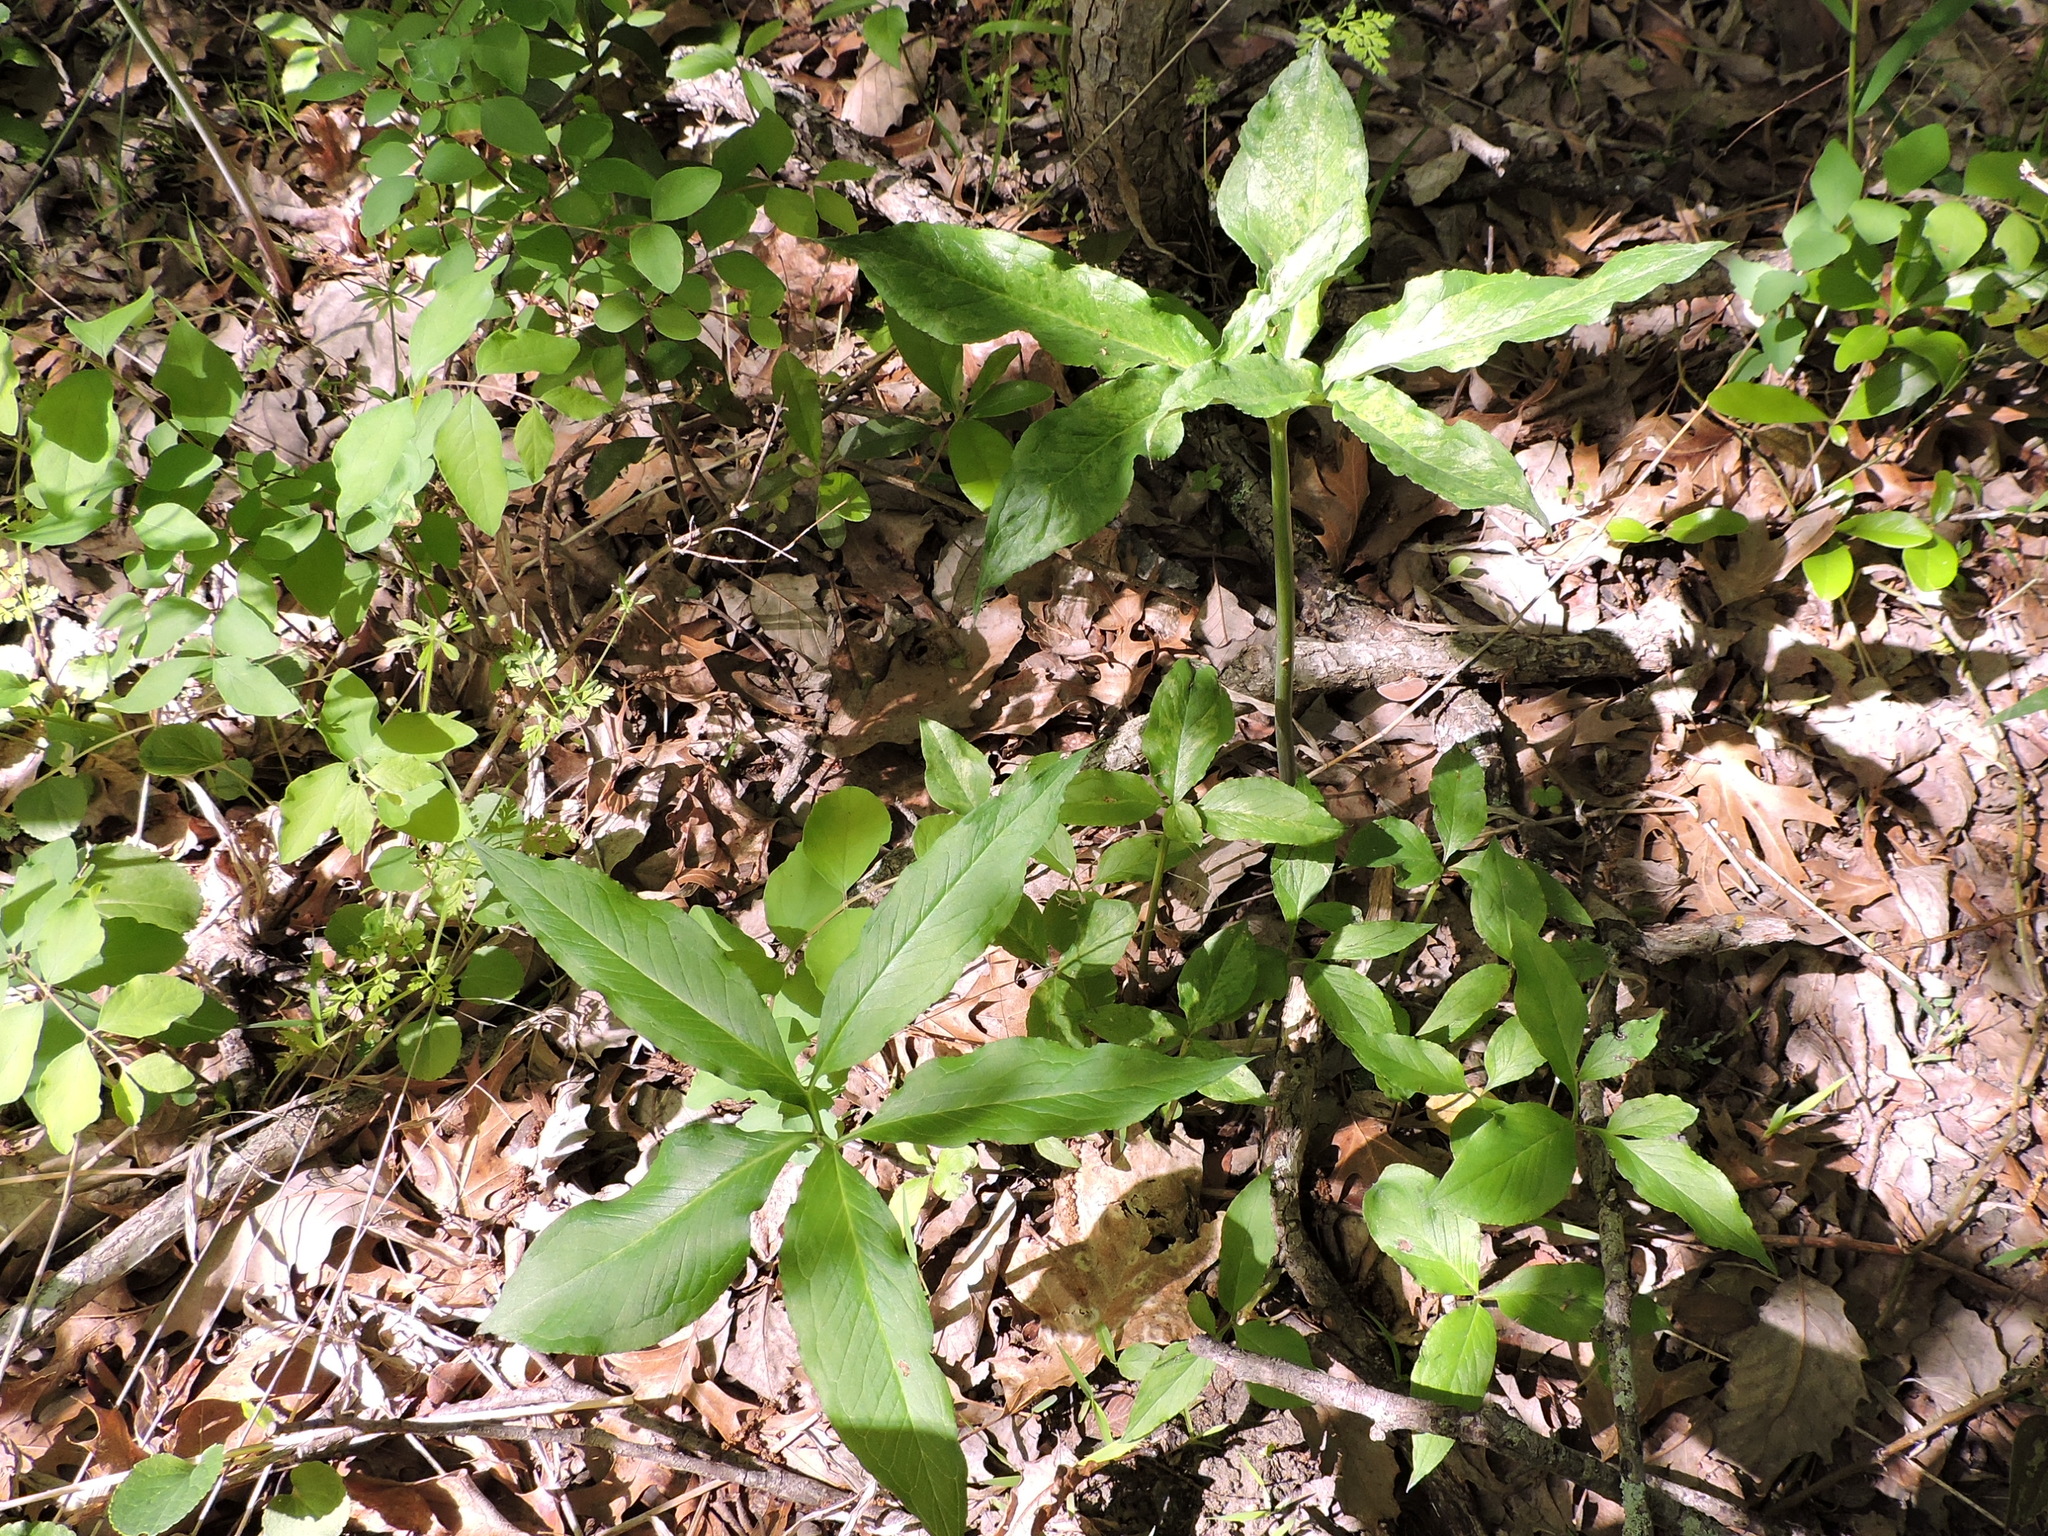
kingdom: Plantae
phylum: Tracheophyta
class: Liliopsida
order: Alismatales
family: Araceae
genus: Arisaema
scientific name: Arisaema dracontium
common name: Dragon-arum
